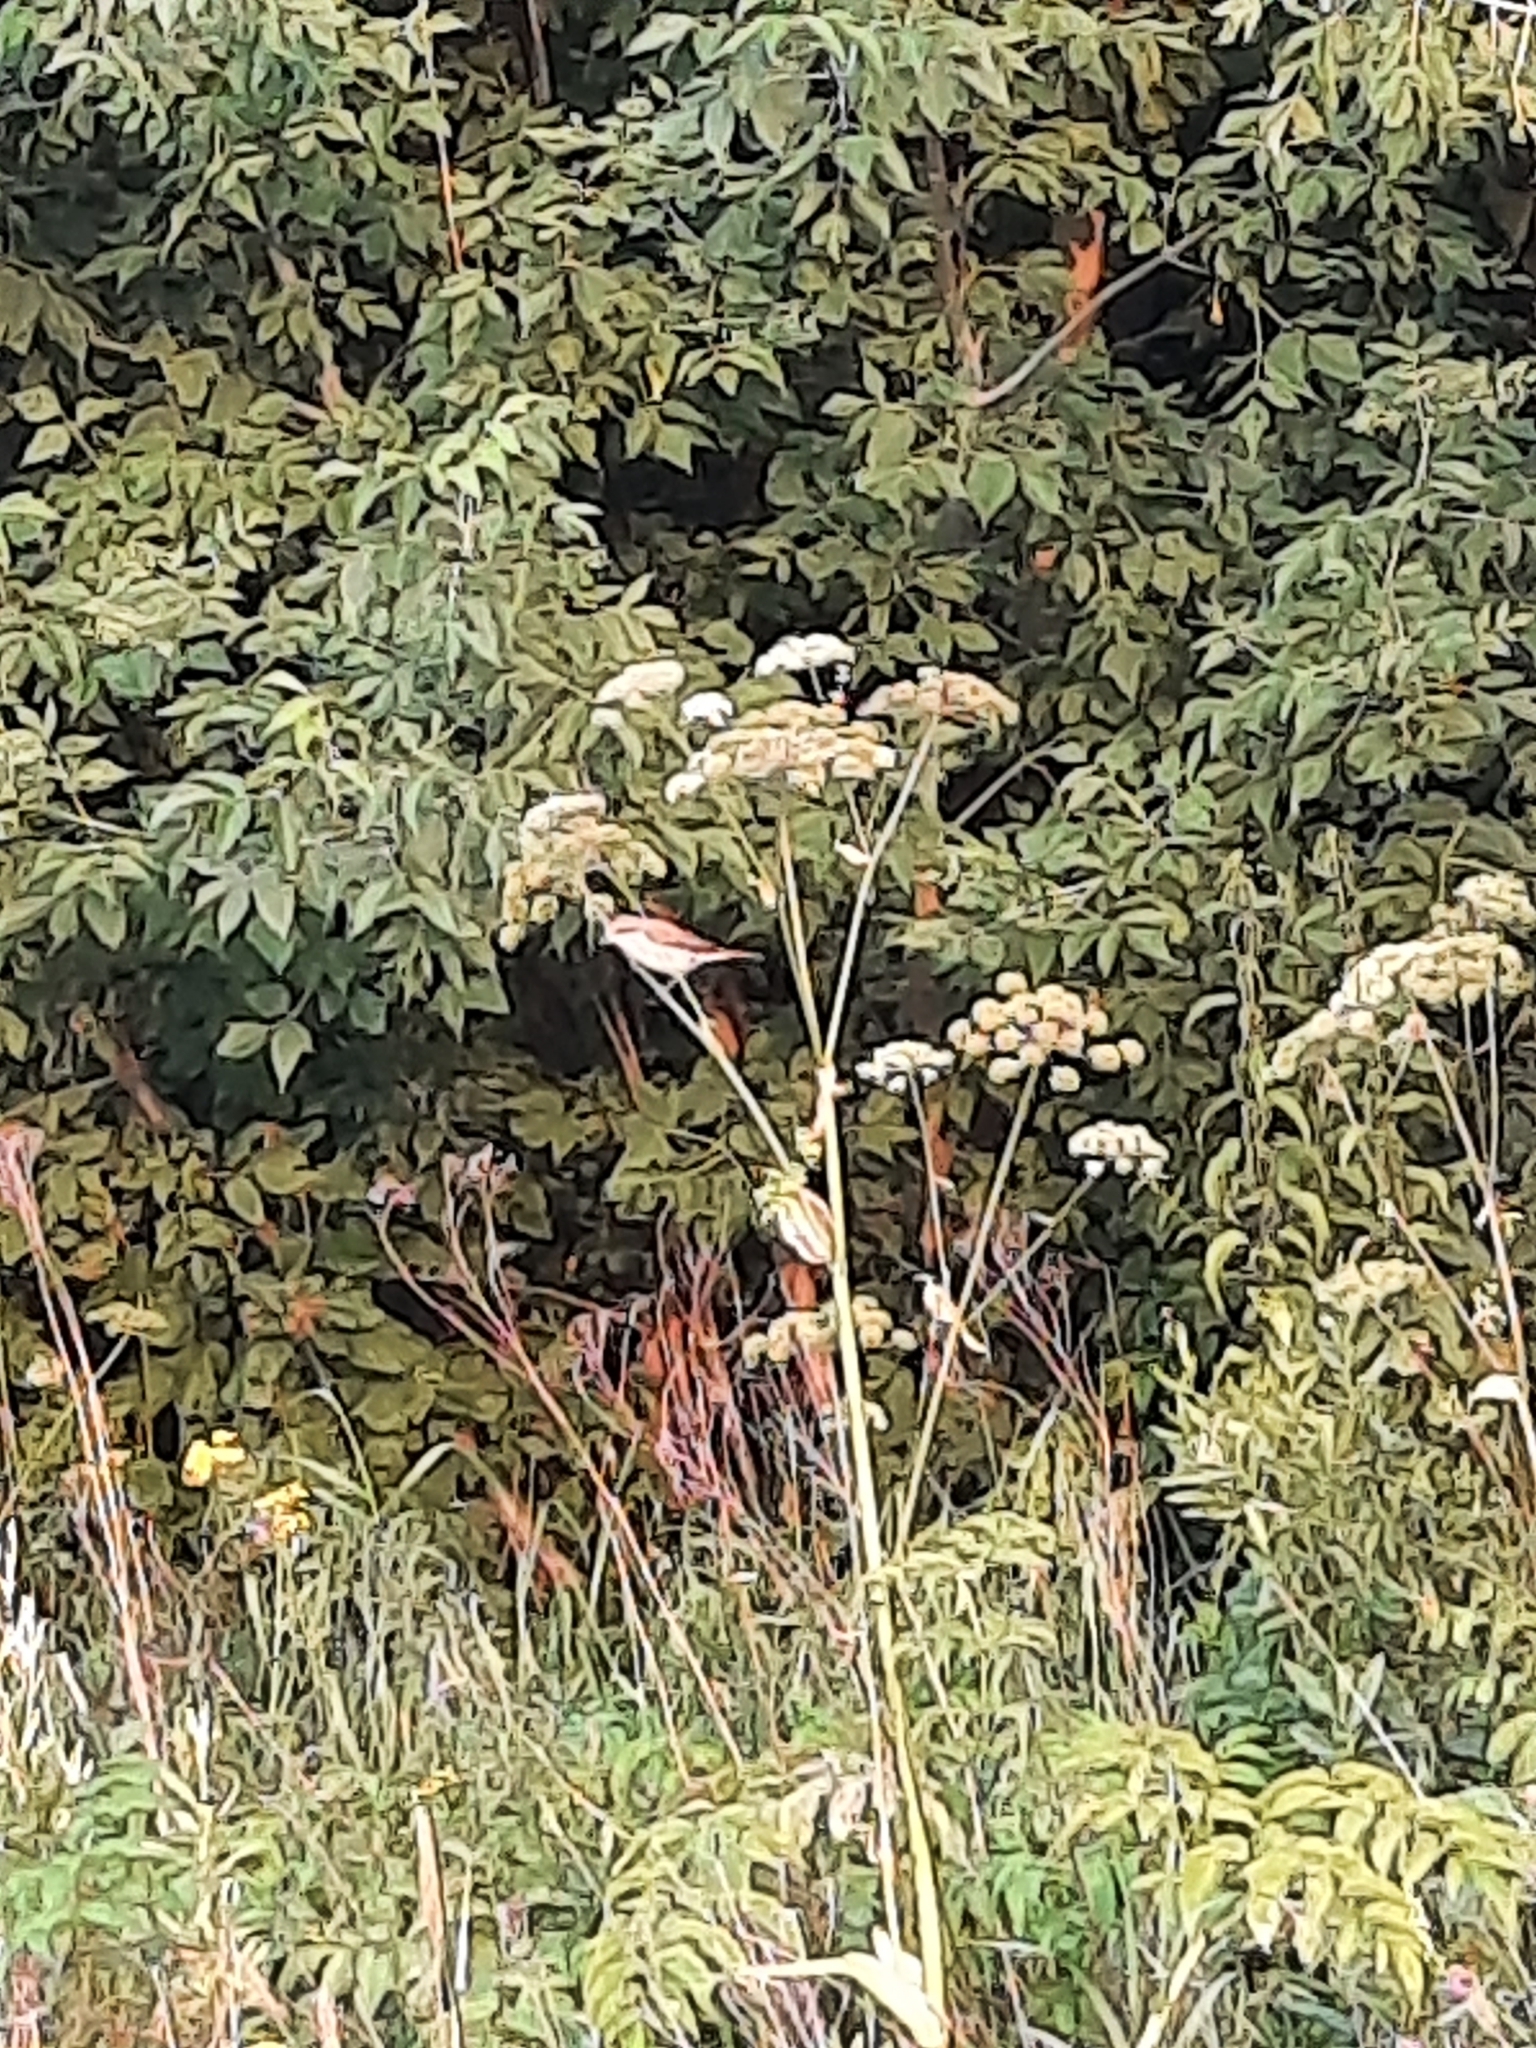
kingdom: Animalia
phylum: Chordata
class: Aves
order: Passeriformes
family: Laniidae
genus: Lanius
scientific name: Lanius collurio
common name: Red-backed shrike
